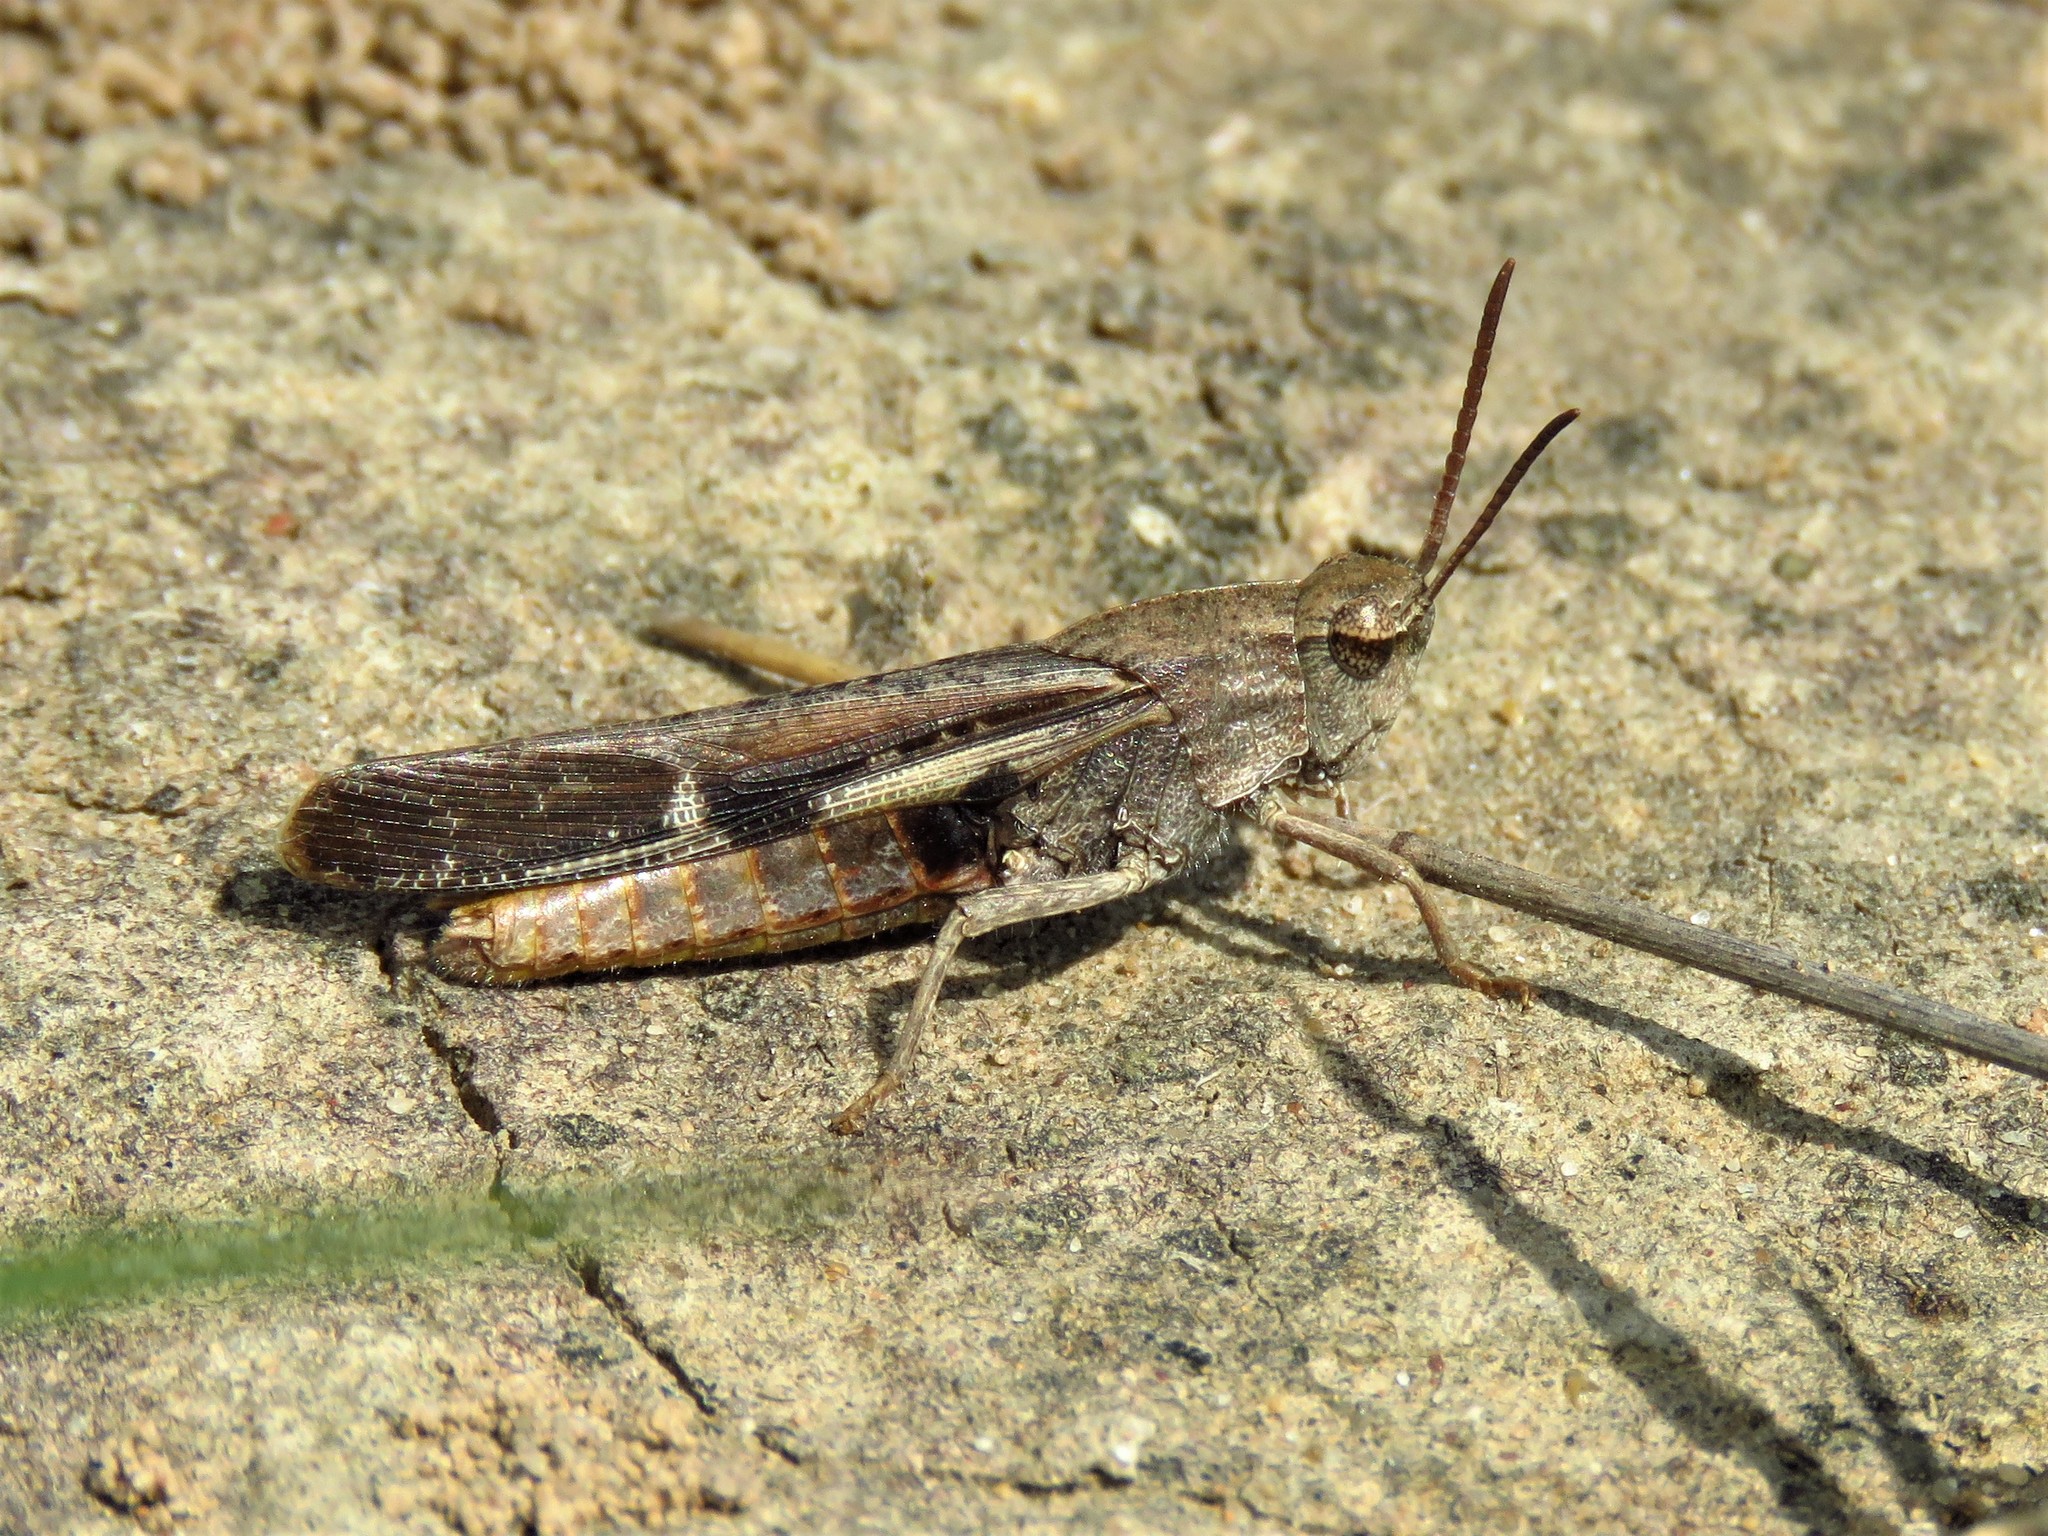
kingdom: Animalia
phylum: Arthropoda
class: Insecta
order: Orthoptera
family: Acrididae
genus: Chortophaga
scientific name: Chortophaga viridifasciata
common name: Green-striped grasshopper
